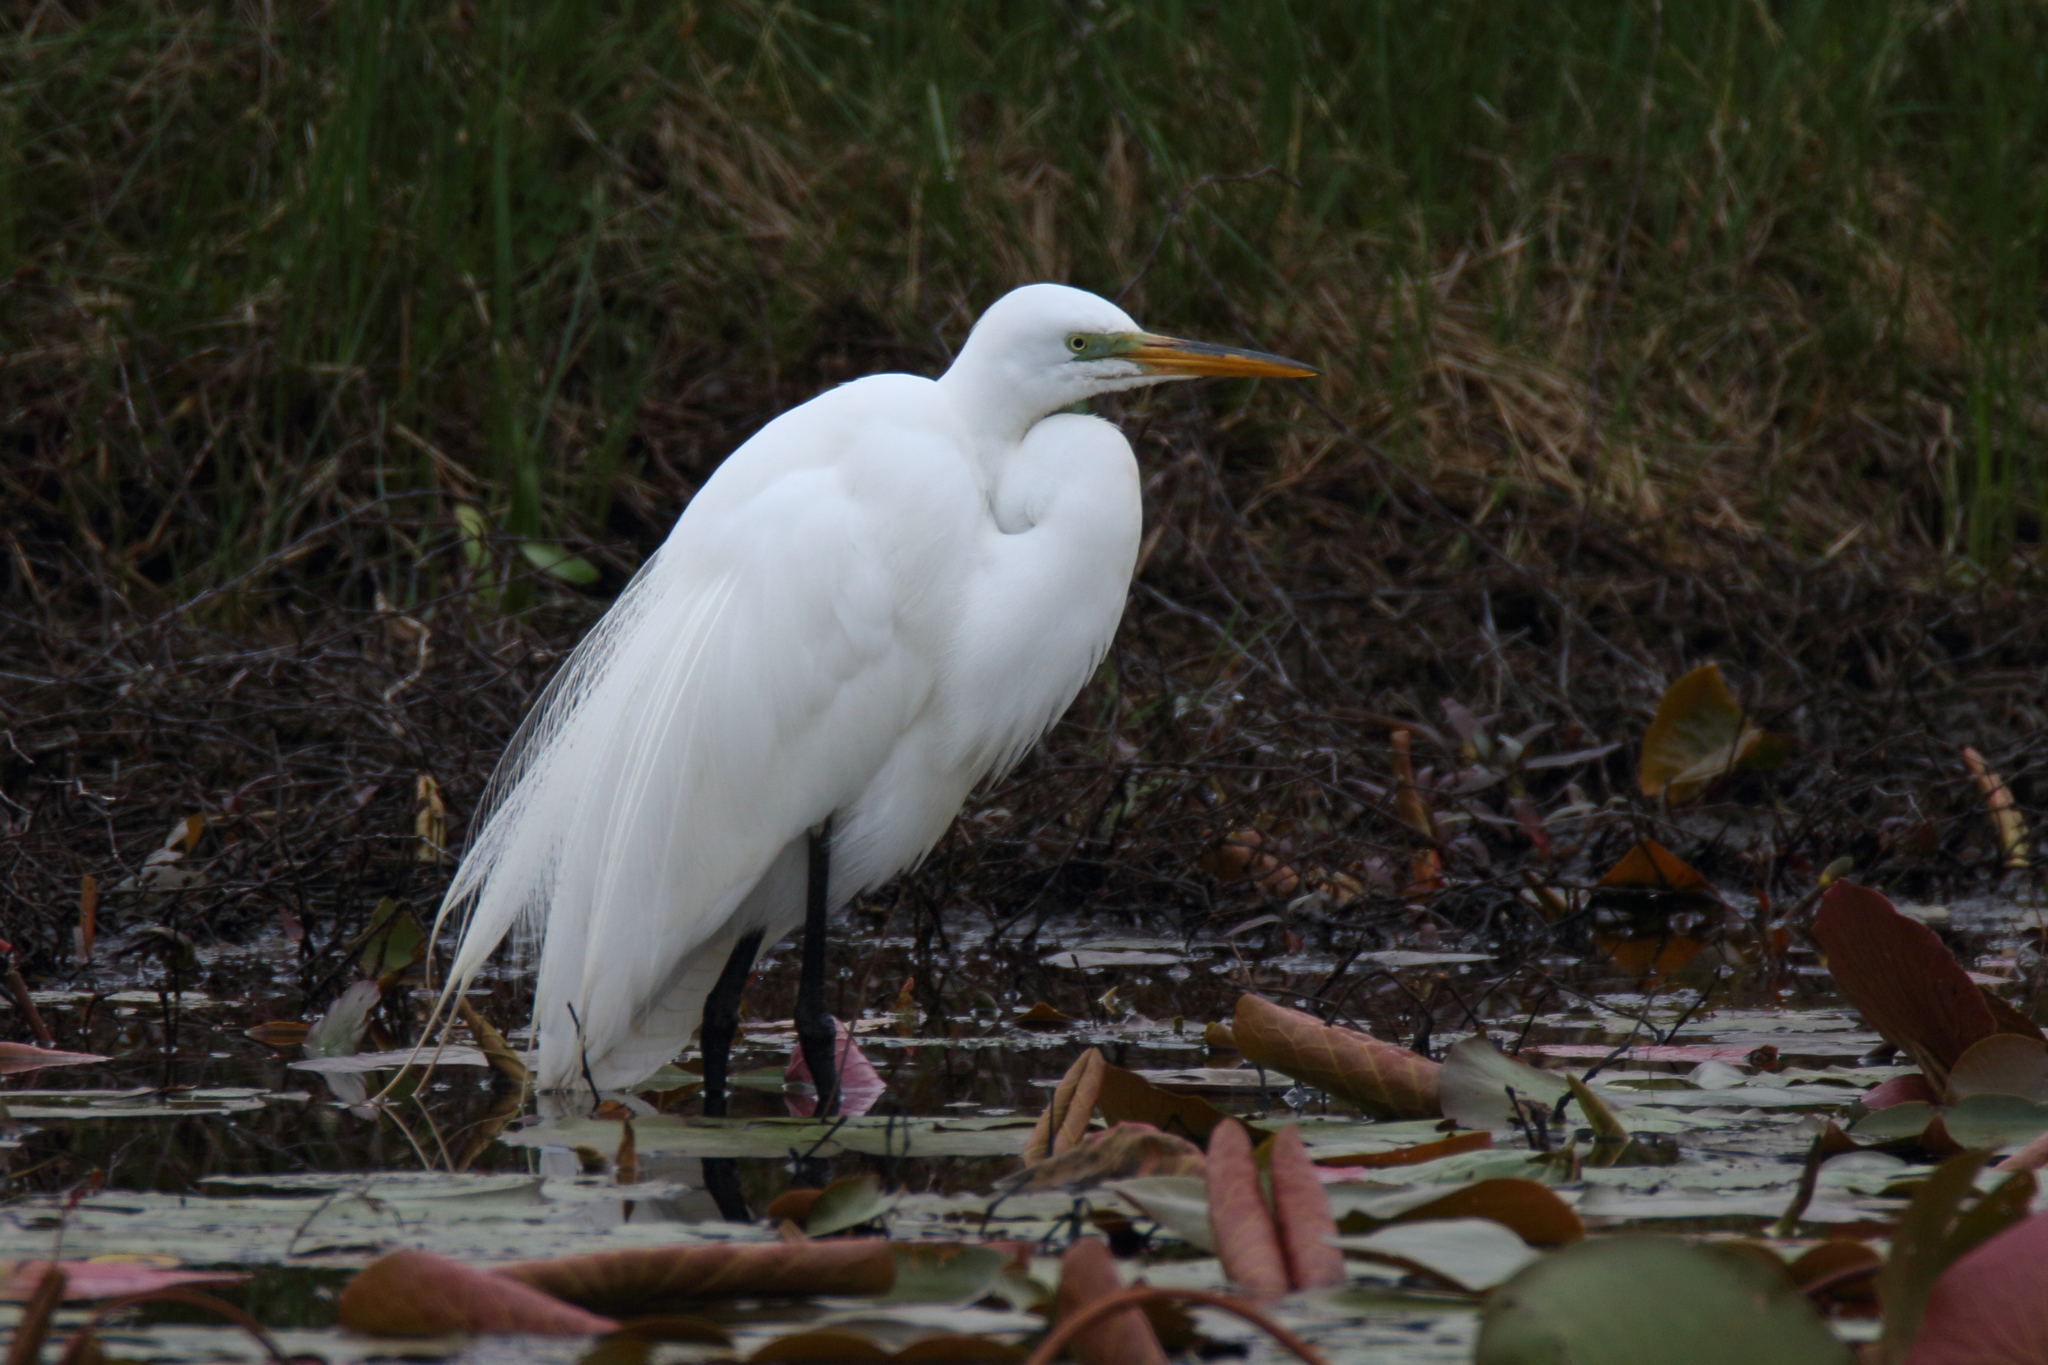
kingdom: Animalia
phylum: Chordata
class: Aves
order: Pelecaniformes
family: Ardeidae
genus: Ardea
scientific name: Ardea alba
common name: Great egret
